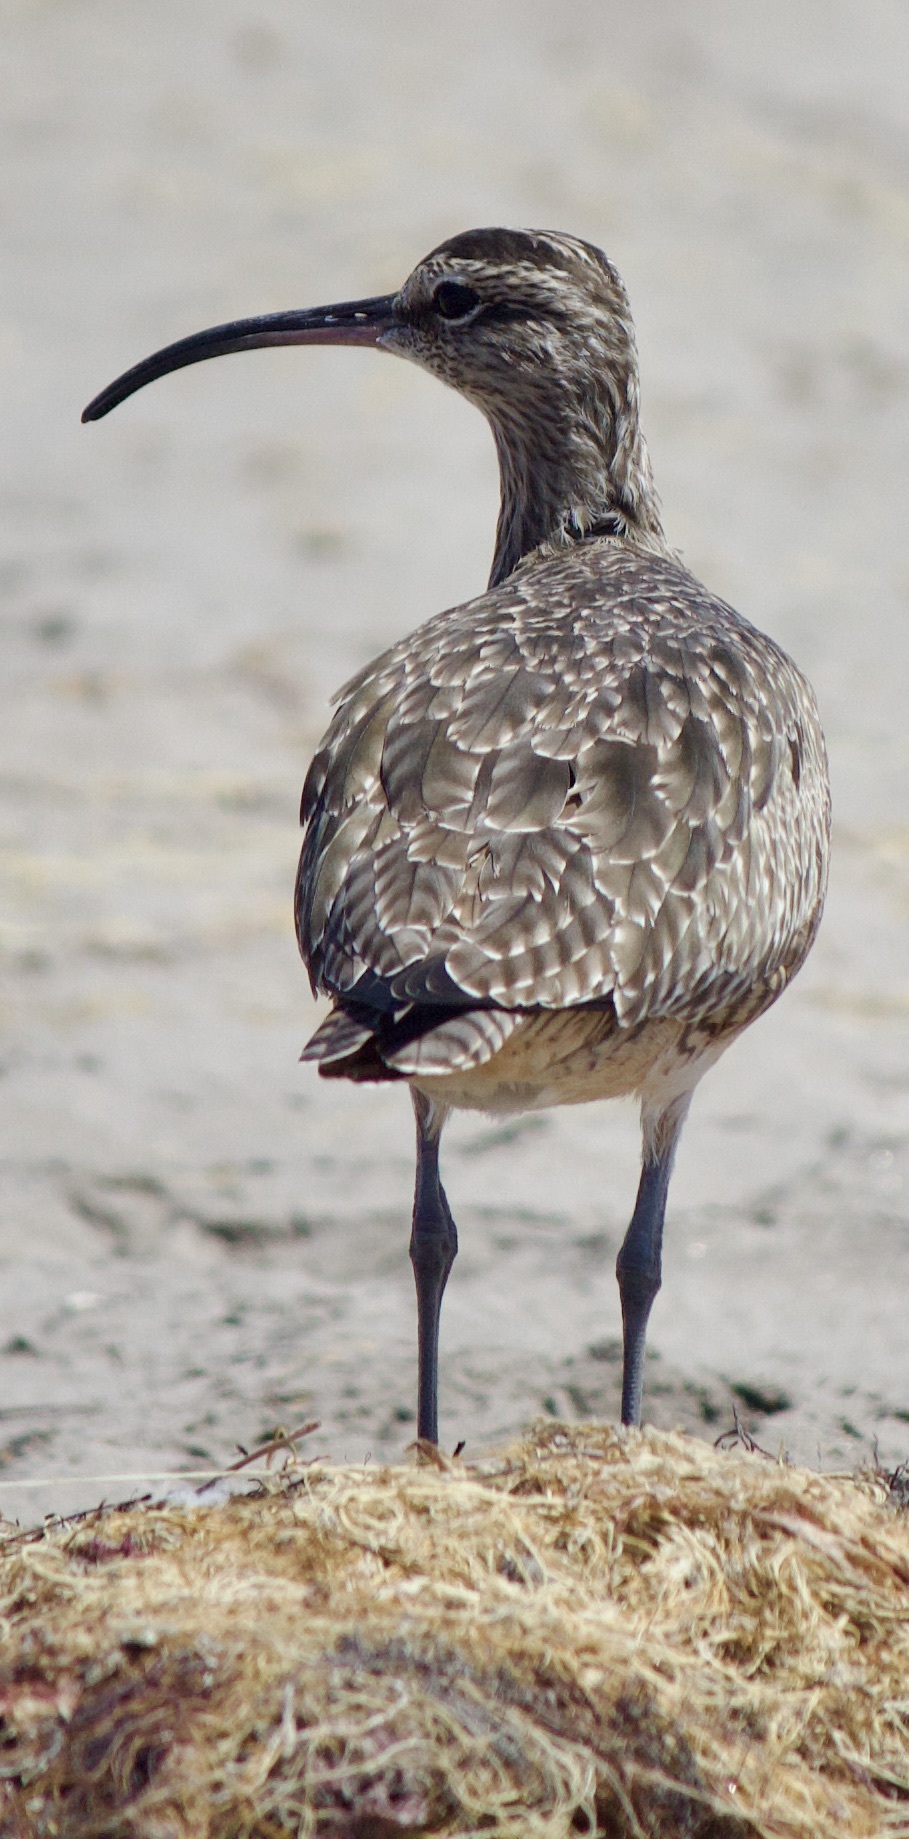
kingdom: Animalia
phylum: Chordata
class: Aves
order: Charadriiformes
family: Scolopacidae
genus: Numenius
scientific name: Numenius phaeopus
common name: Whimbrel
